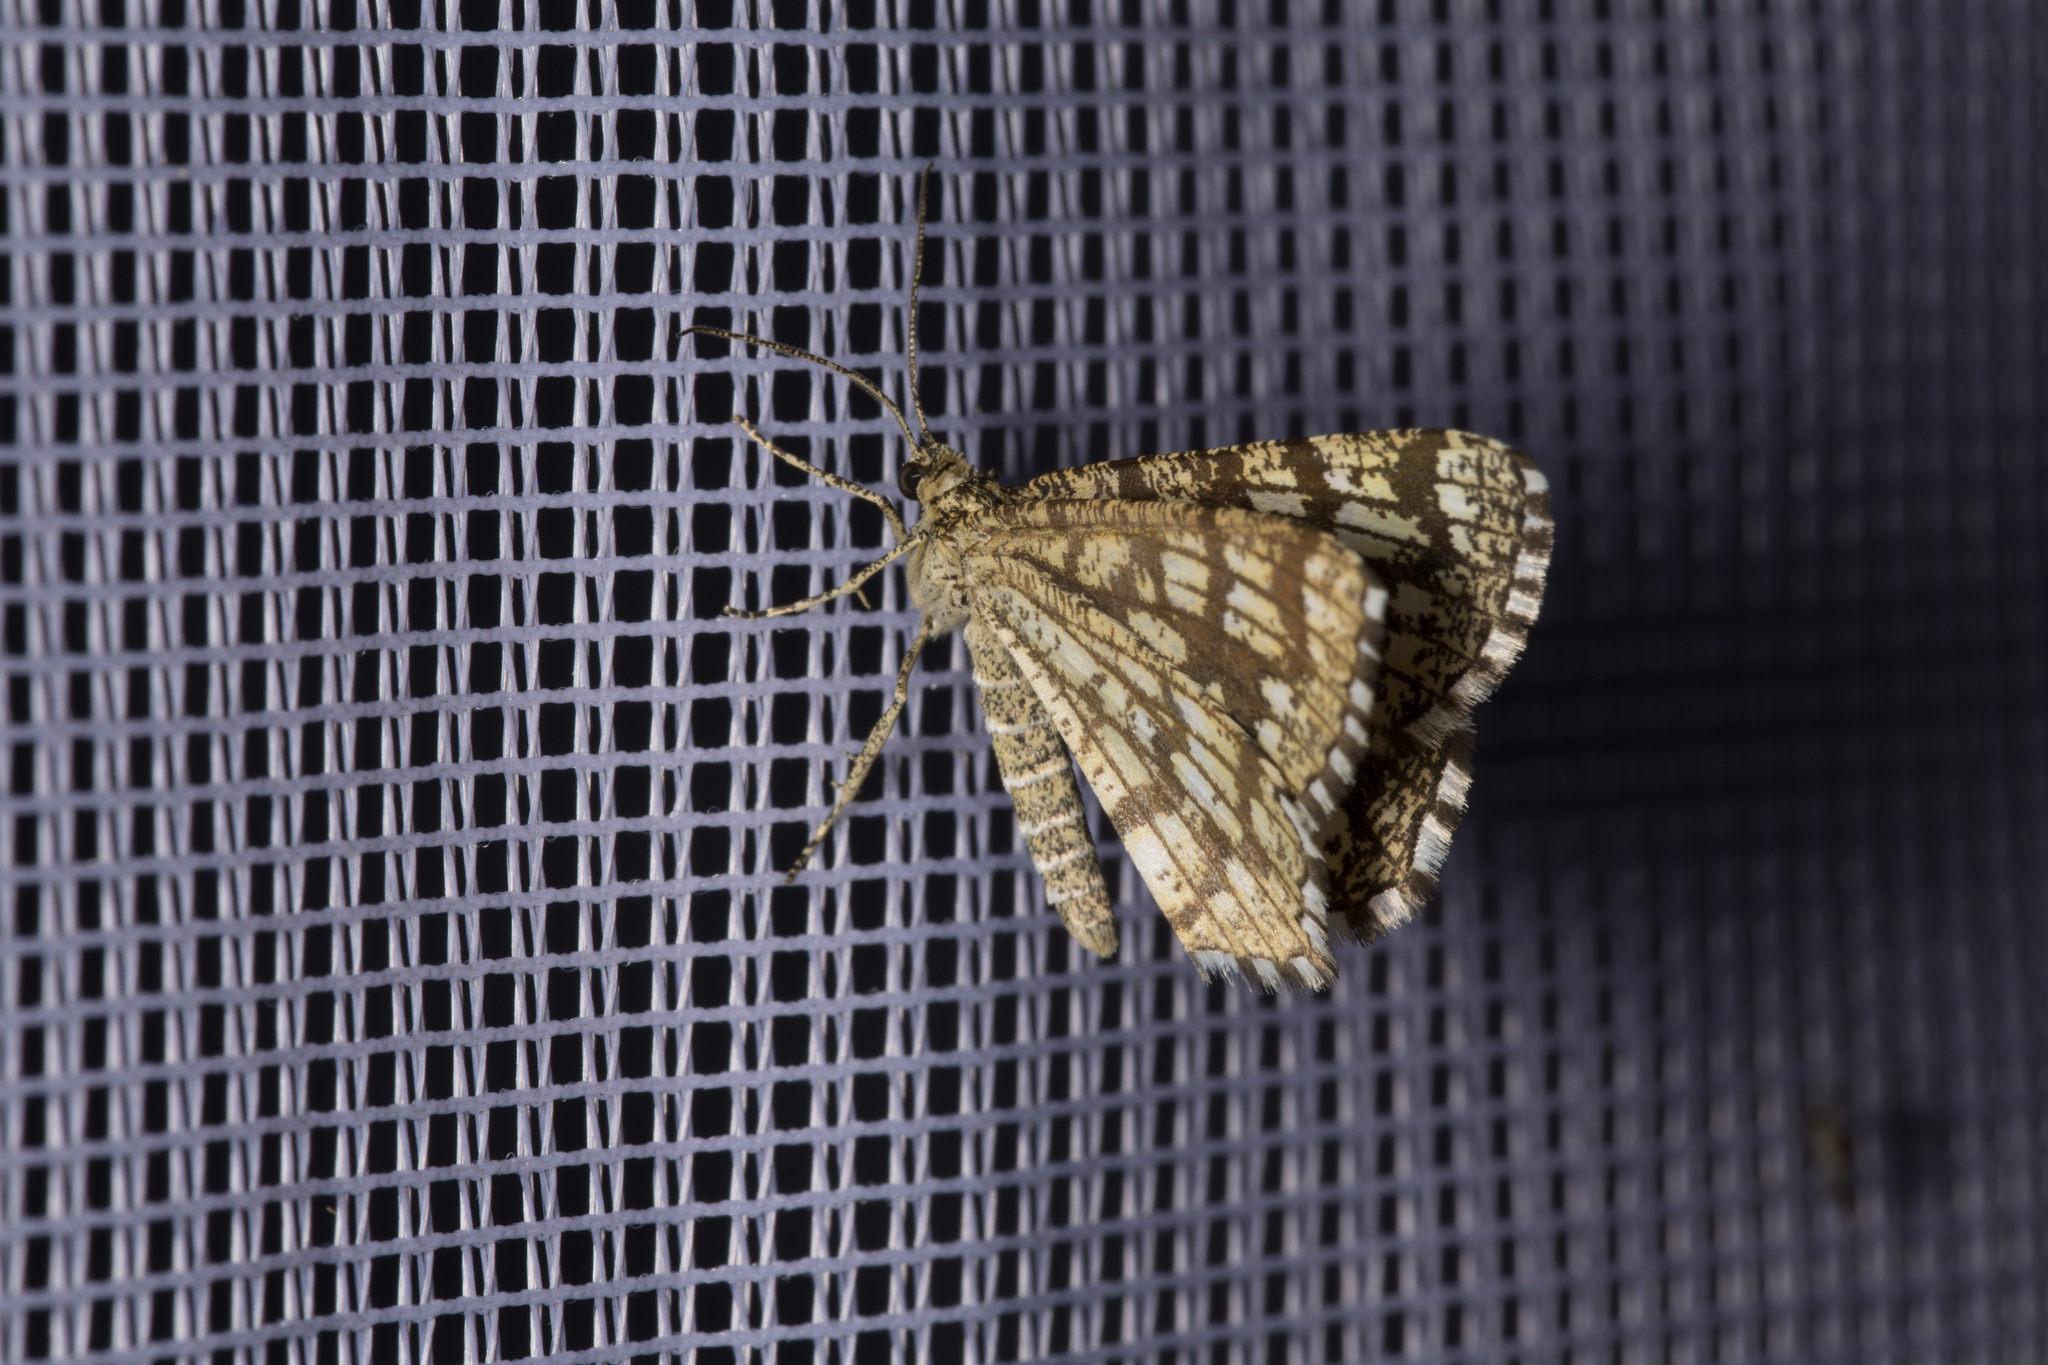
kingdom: Animalia
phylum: Arthropoda
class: Insecta
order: Lepidoptera
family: Geometridae
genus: Chiasmia
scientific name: Chiasmia clathrata
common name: Latticed heath
